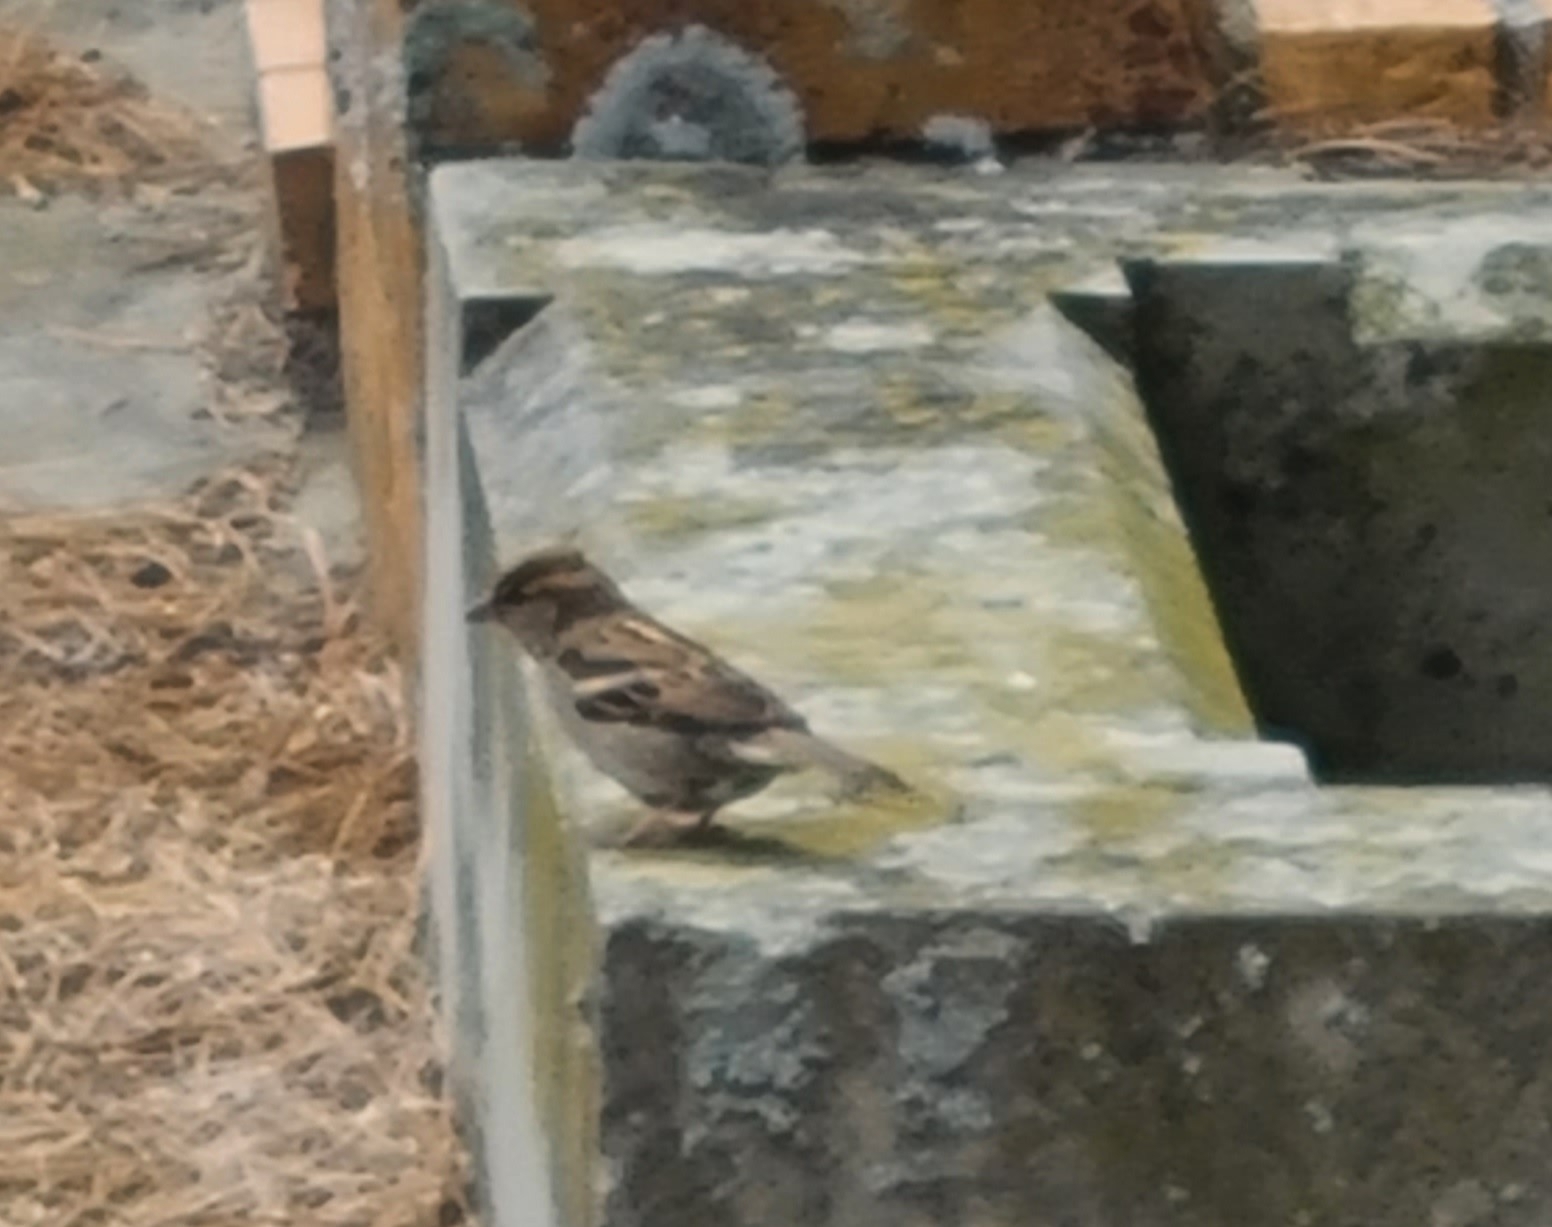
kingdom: Animalia
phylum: Chordata
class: Aves
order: Passeriformes
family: Passeridae
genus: Passer
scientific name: Passer domesticus
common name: House sparrow
